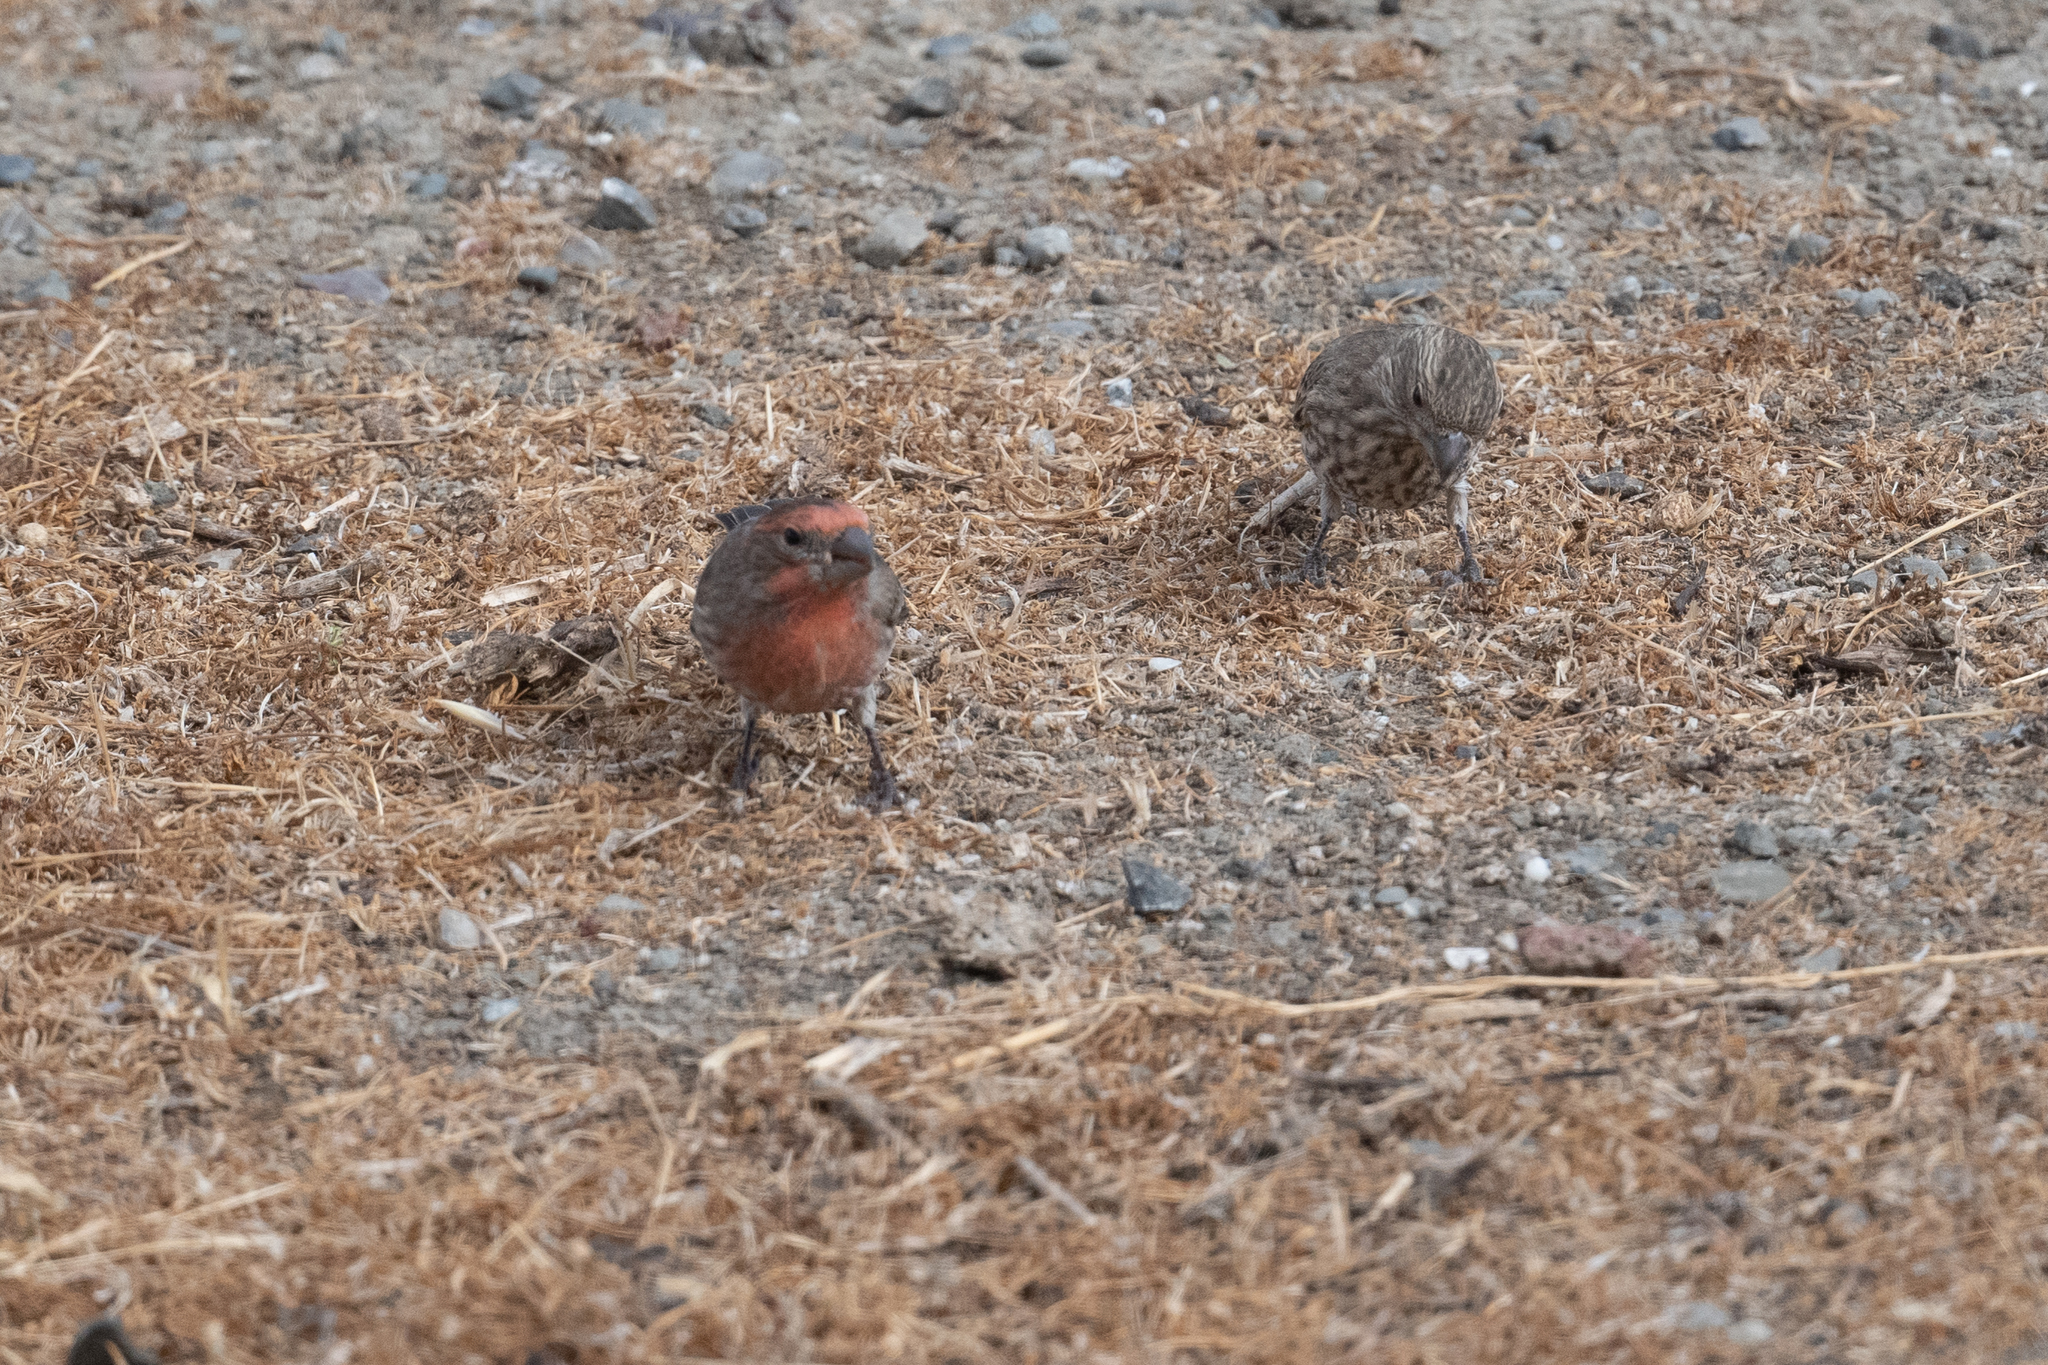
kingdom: Animalia
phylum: Chordata
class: Aves
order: Passeriformes
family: Fringillidae
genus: Haemorhous
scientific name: Haemorhous mexicanus
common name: House finch
